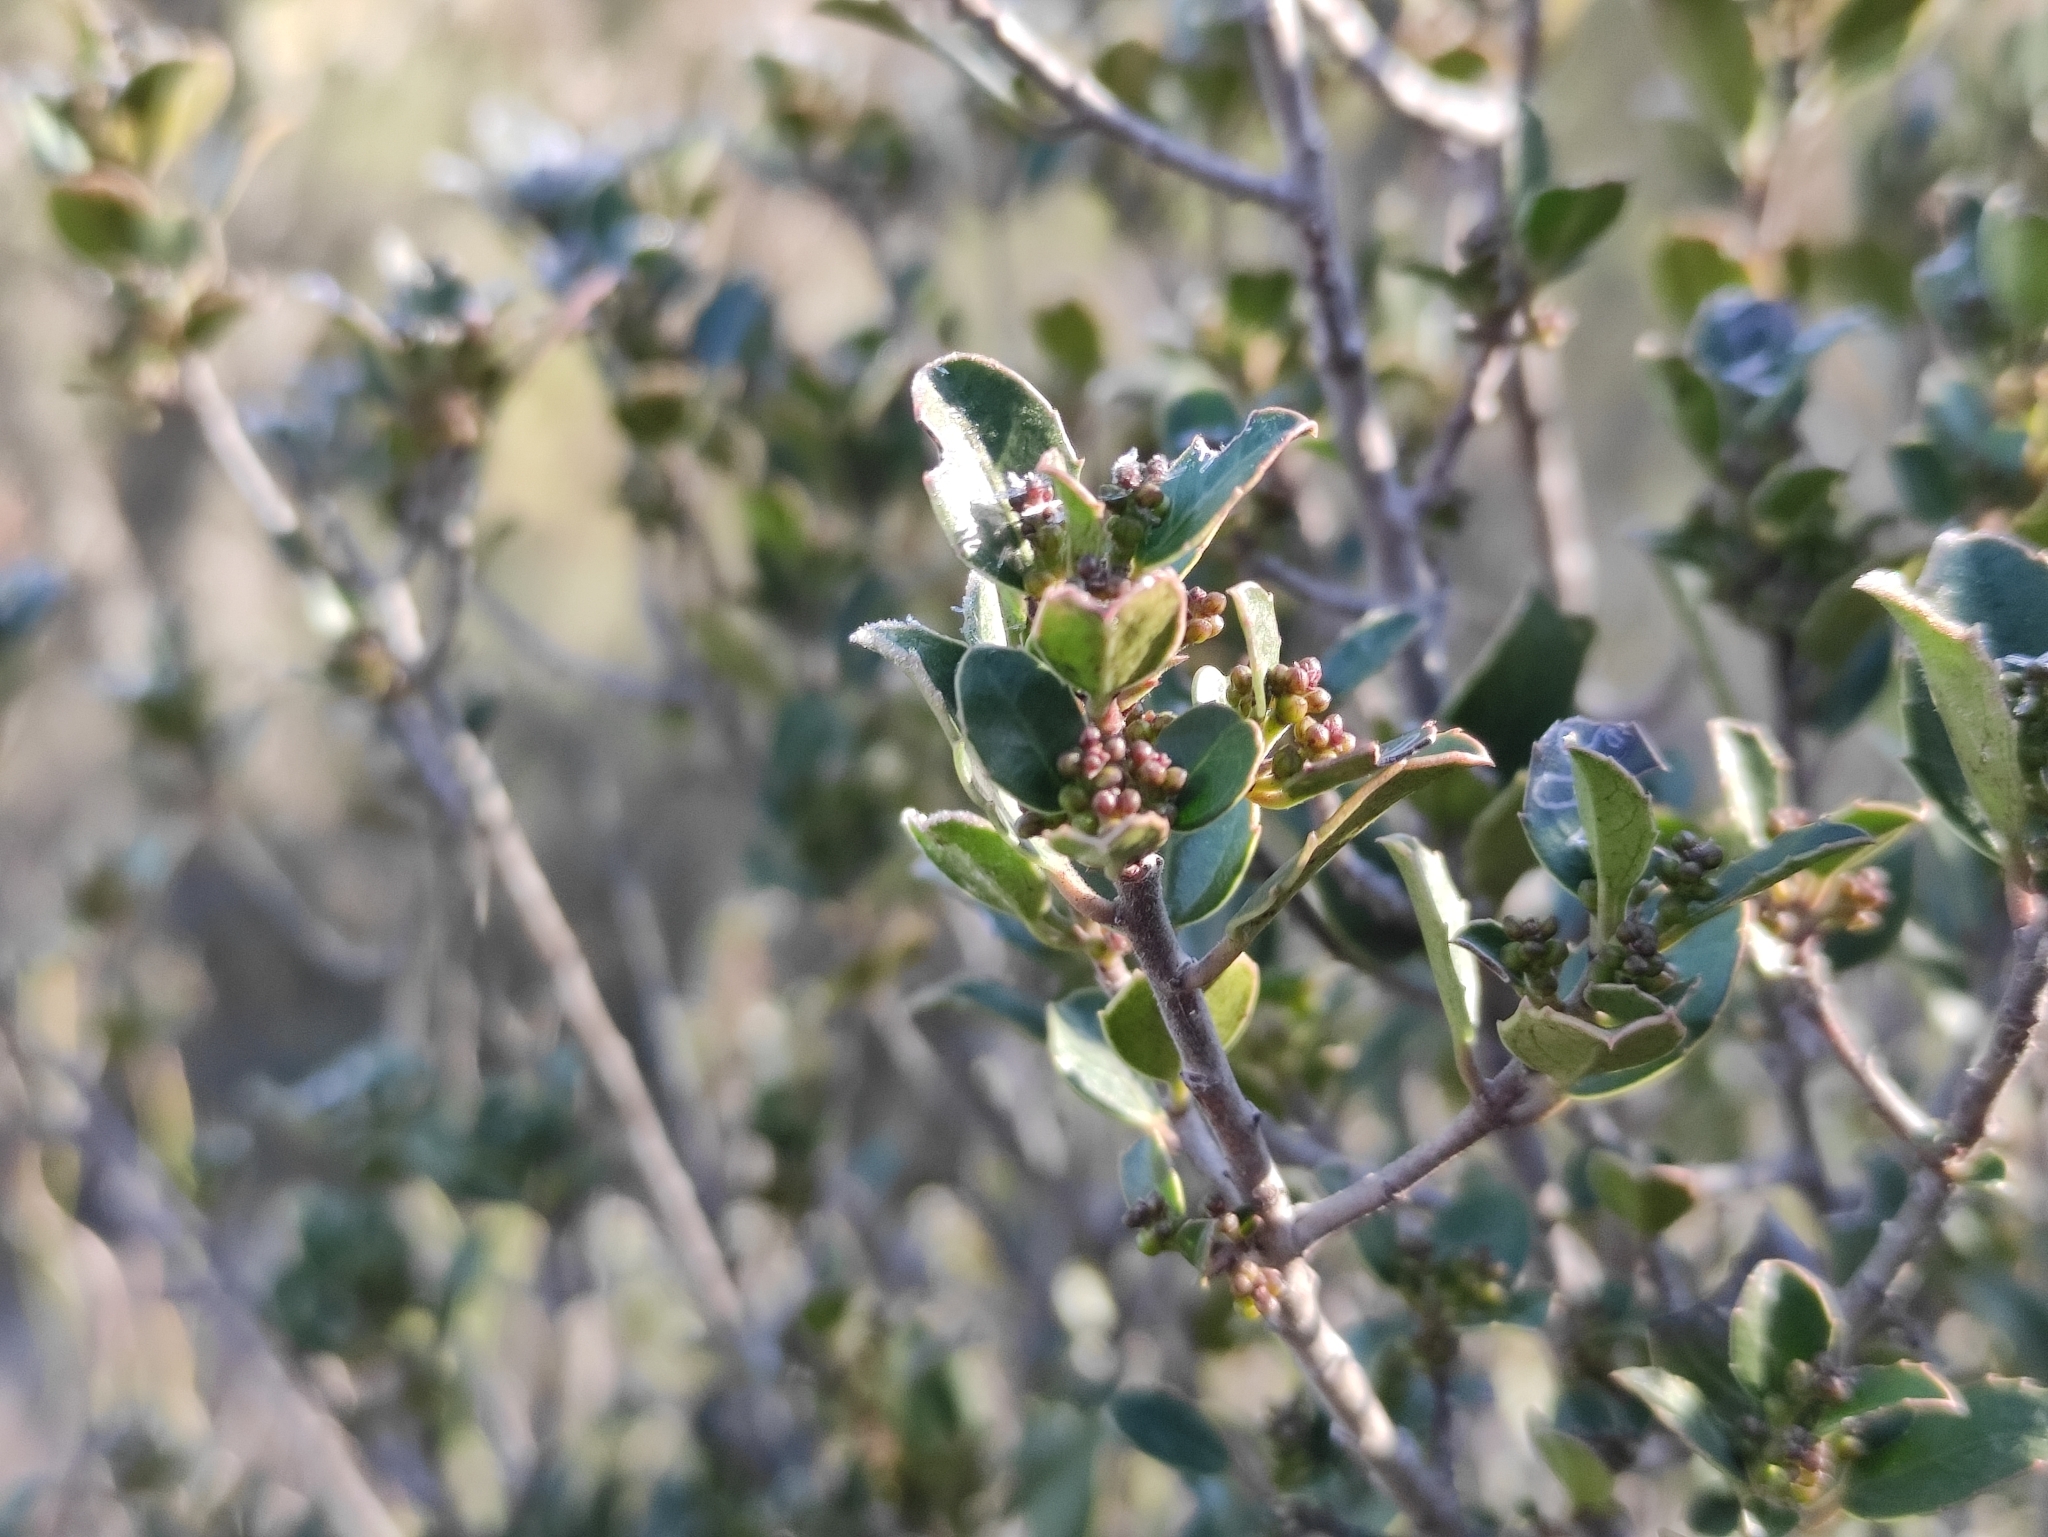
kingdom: Plantae
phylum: Tracheophyta
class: Magnoliopsida
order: Rosales
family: Rhamnaceae
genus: Rhamnus
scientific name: Rhamnus alaternus
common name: Mediterranean buckthorn
